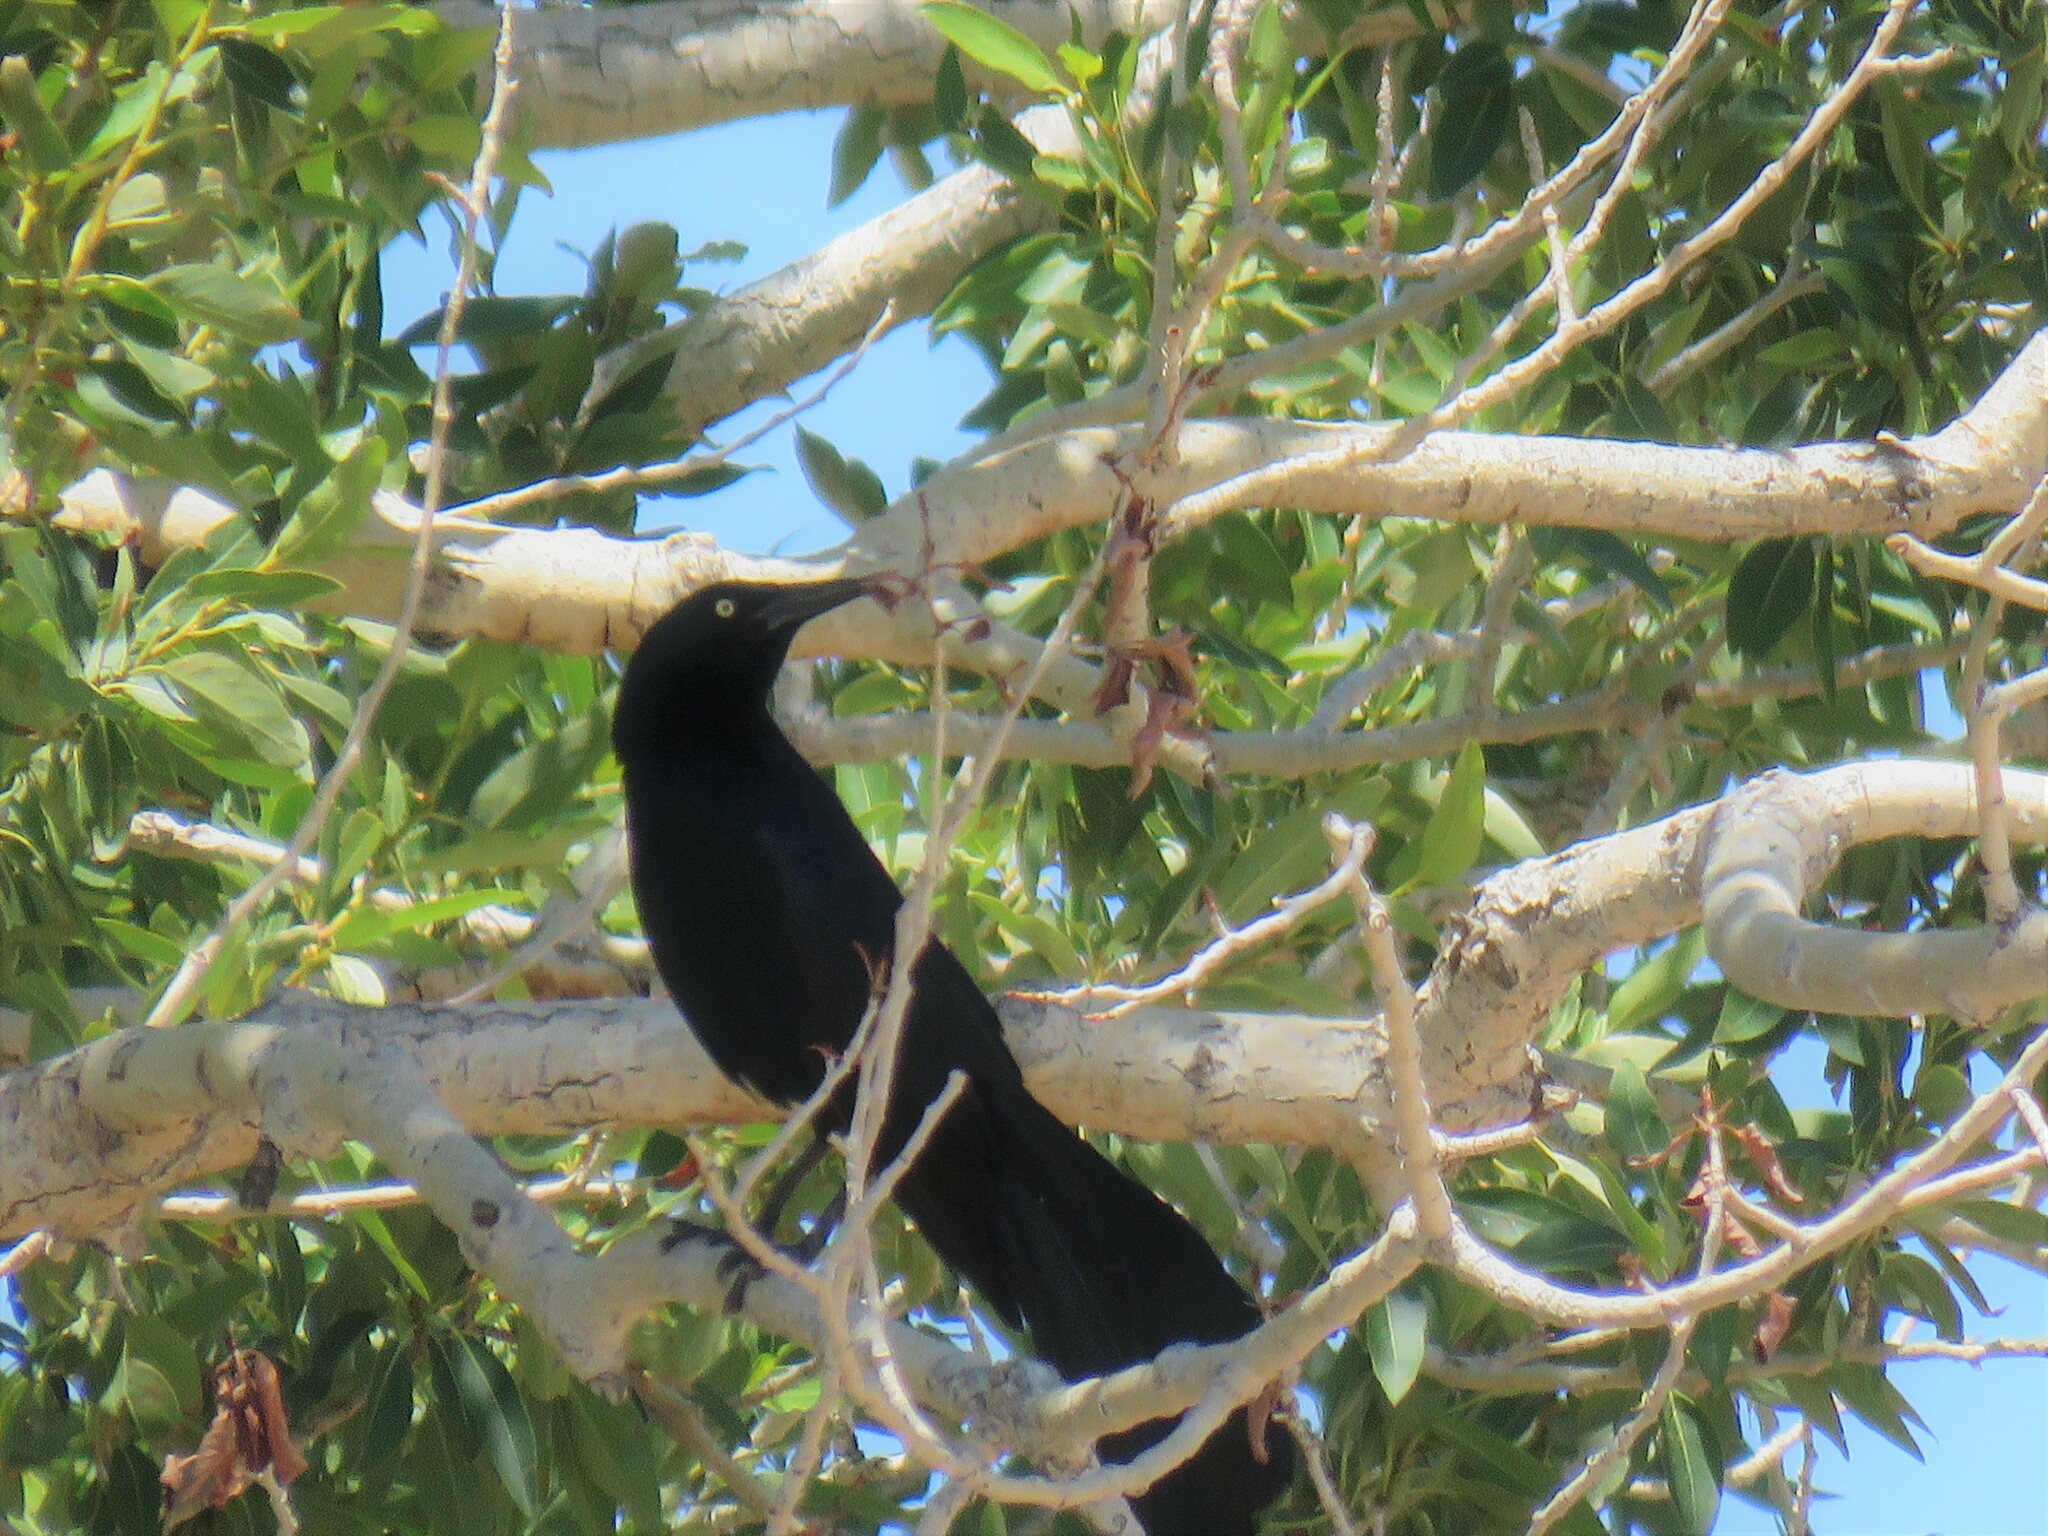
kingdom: Animalia
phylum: Chordata
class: Aves
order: Passeriformes
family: Icteridae
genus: Quiscalus
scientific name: Quiscalus mexicanus
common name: Great-tailed grackle
